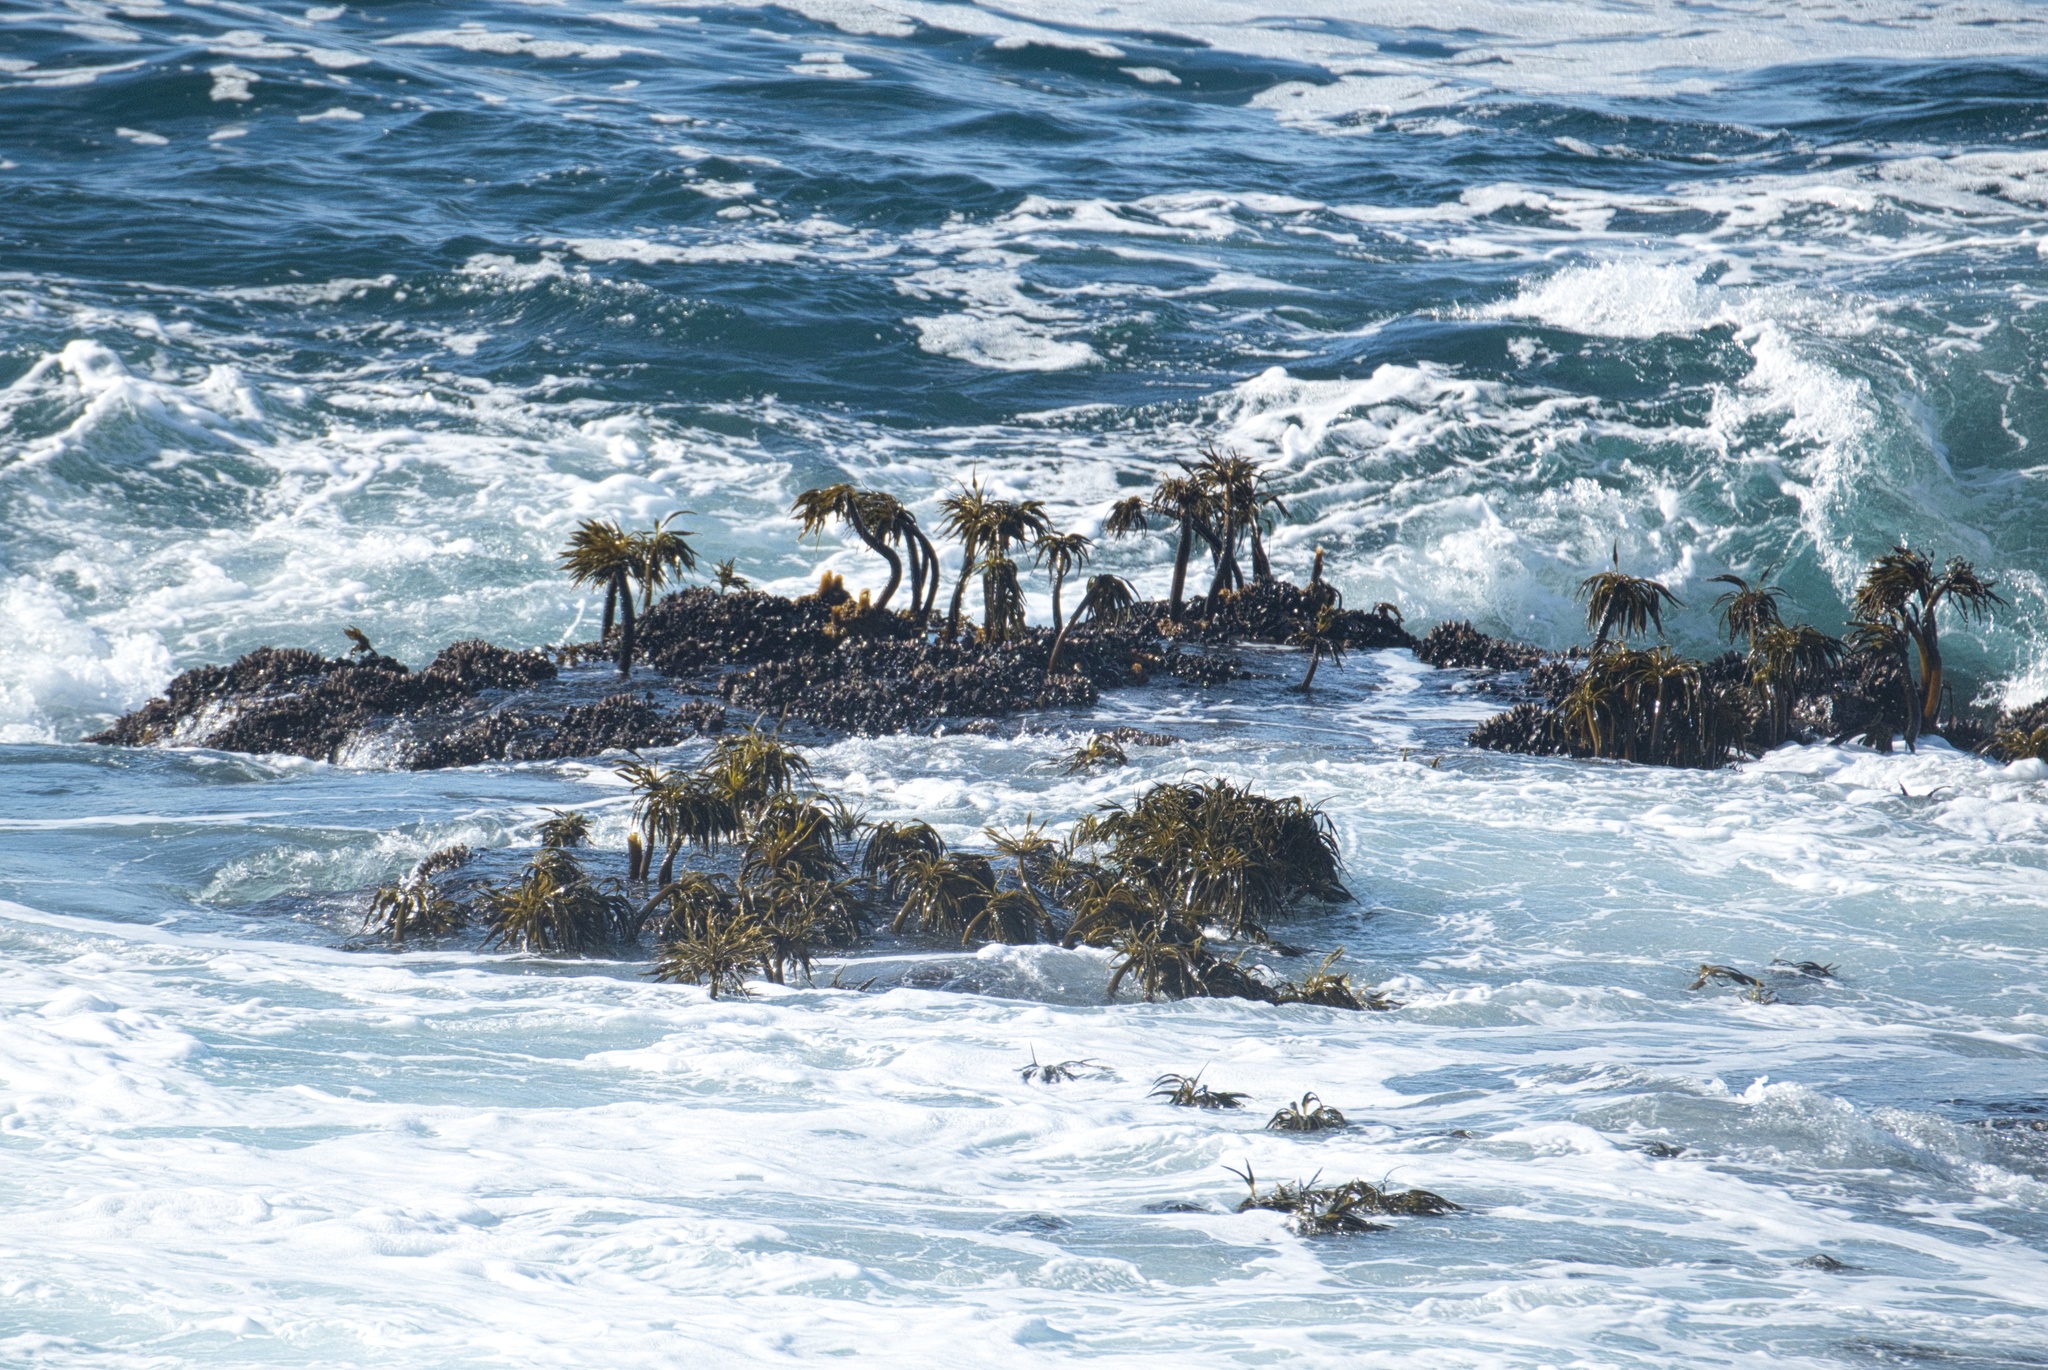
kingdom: Chromista
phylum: Ochrophyta
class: Phaeophyceae
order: Laminariales
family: Laminariaceae
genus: Postelsia
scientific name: Postelsia palmiformis
